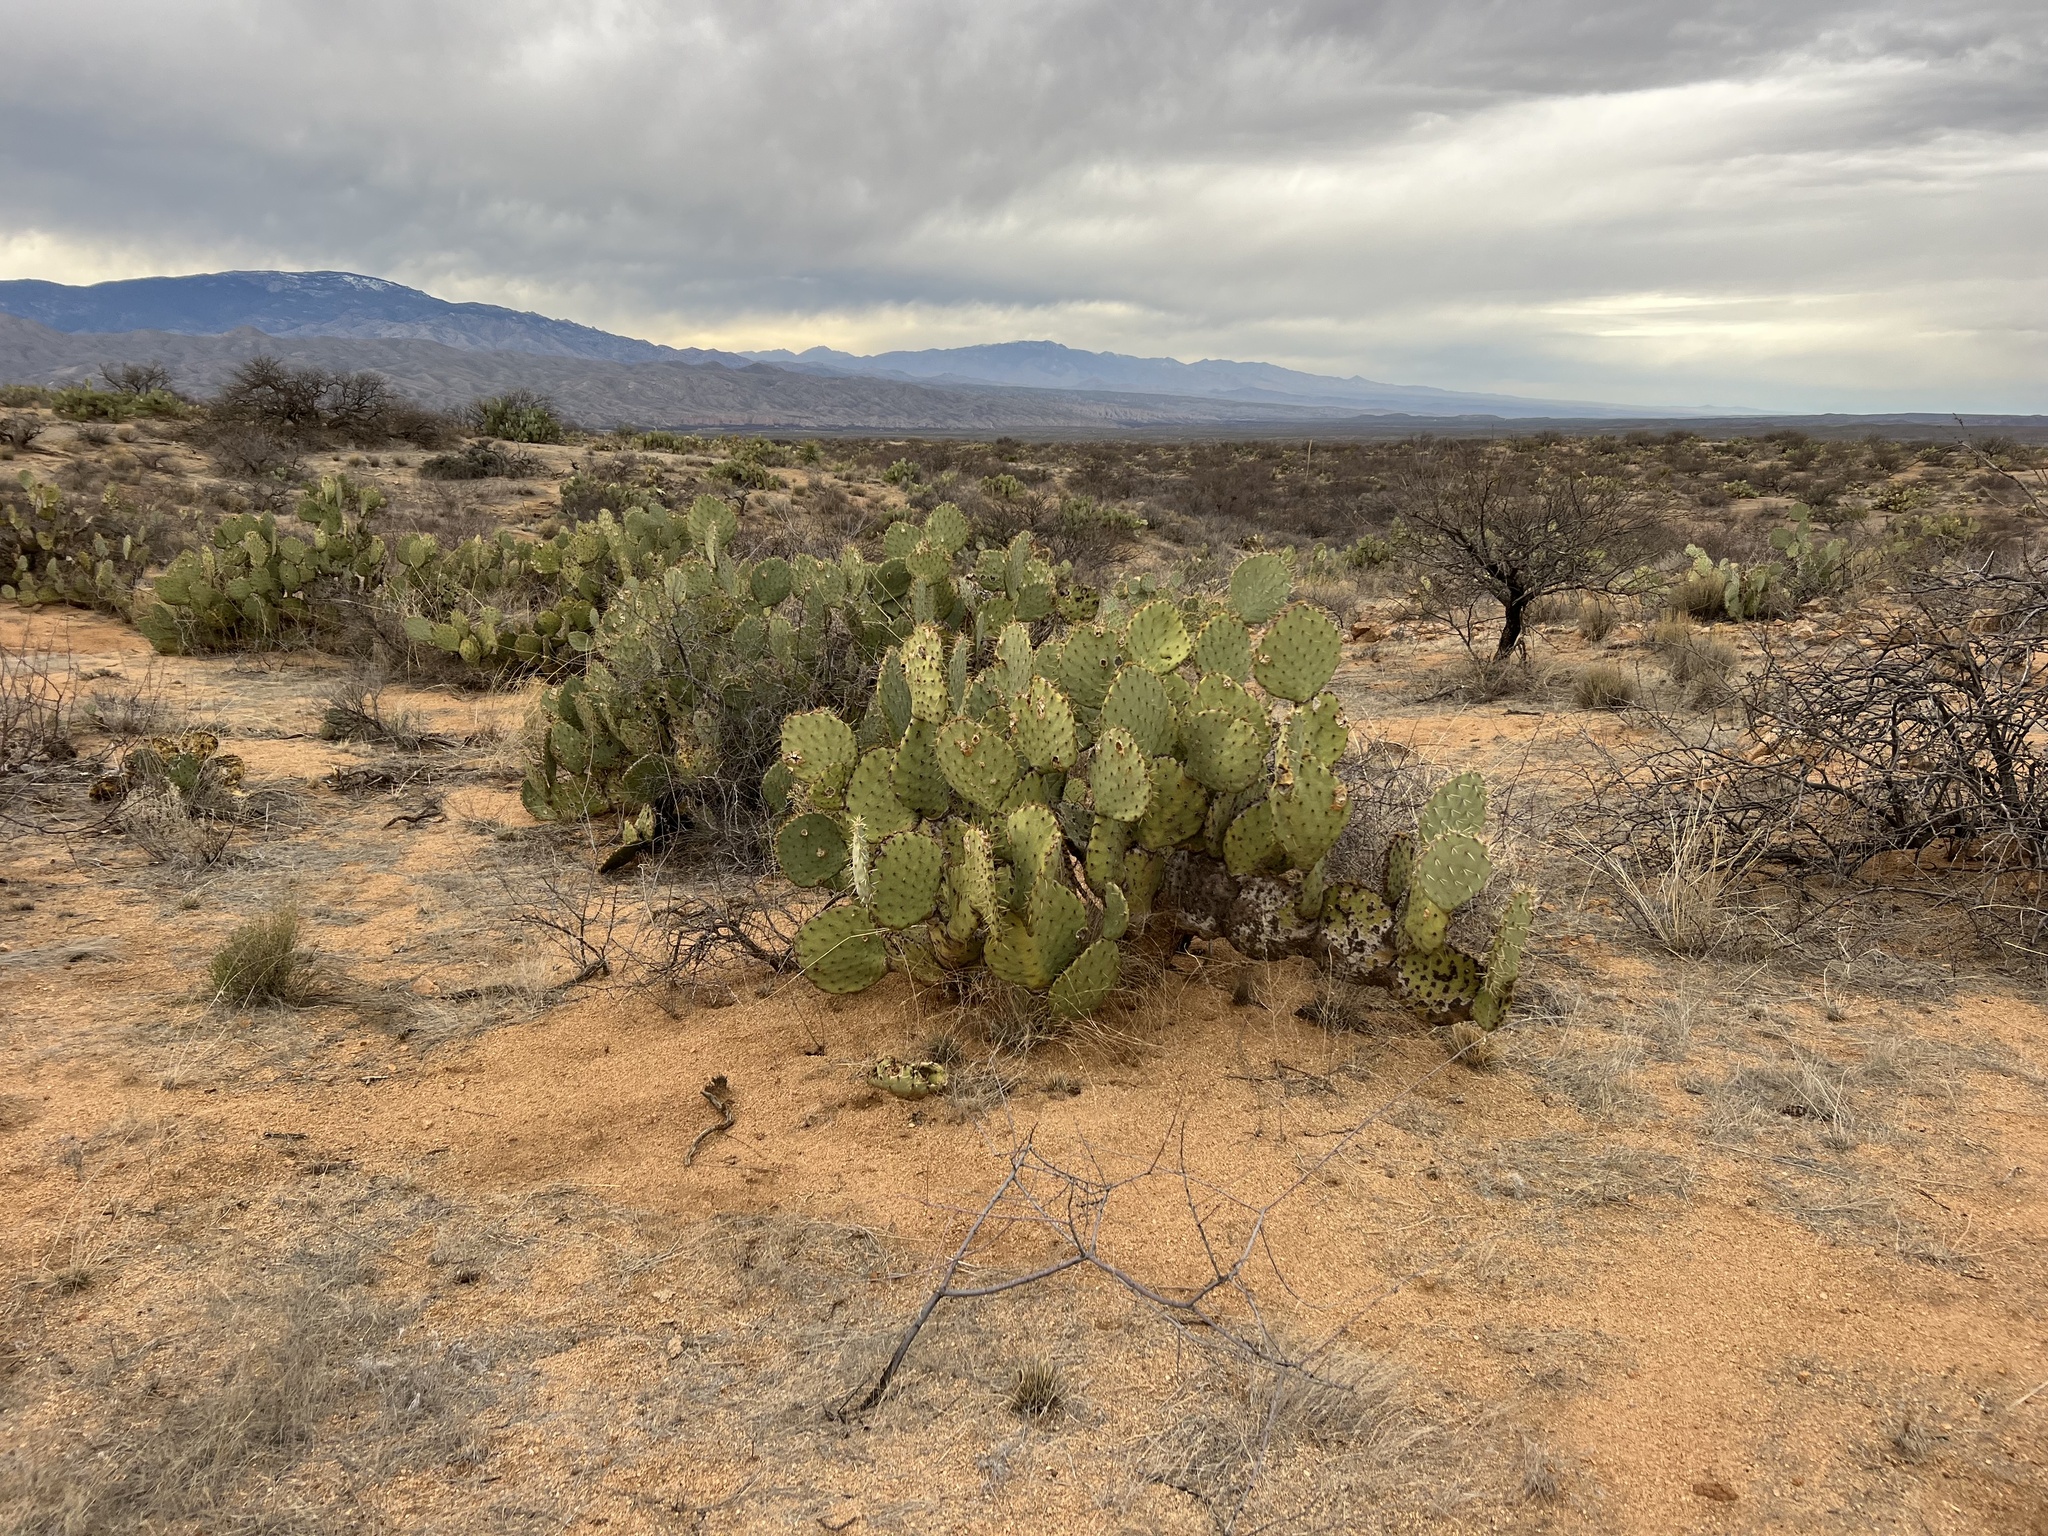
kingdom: Plantae
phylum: Tracheophyta
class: Magnoliopsida
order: Caryophyllales
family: Cactaceae
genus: Opuntia
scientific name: Opuntia engelmannii
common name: Cactus-apple
